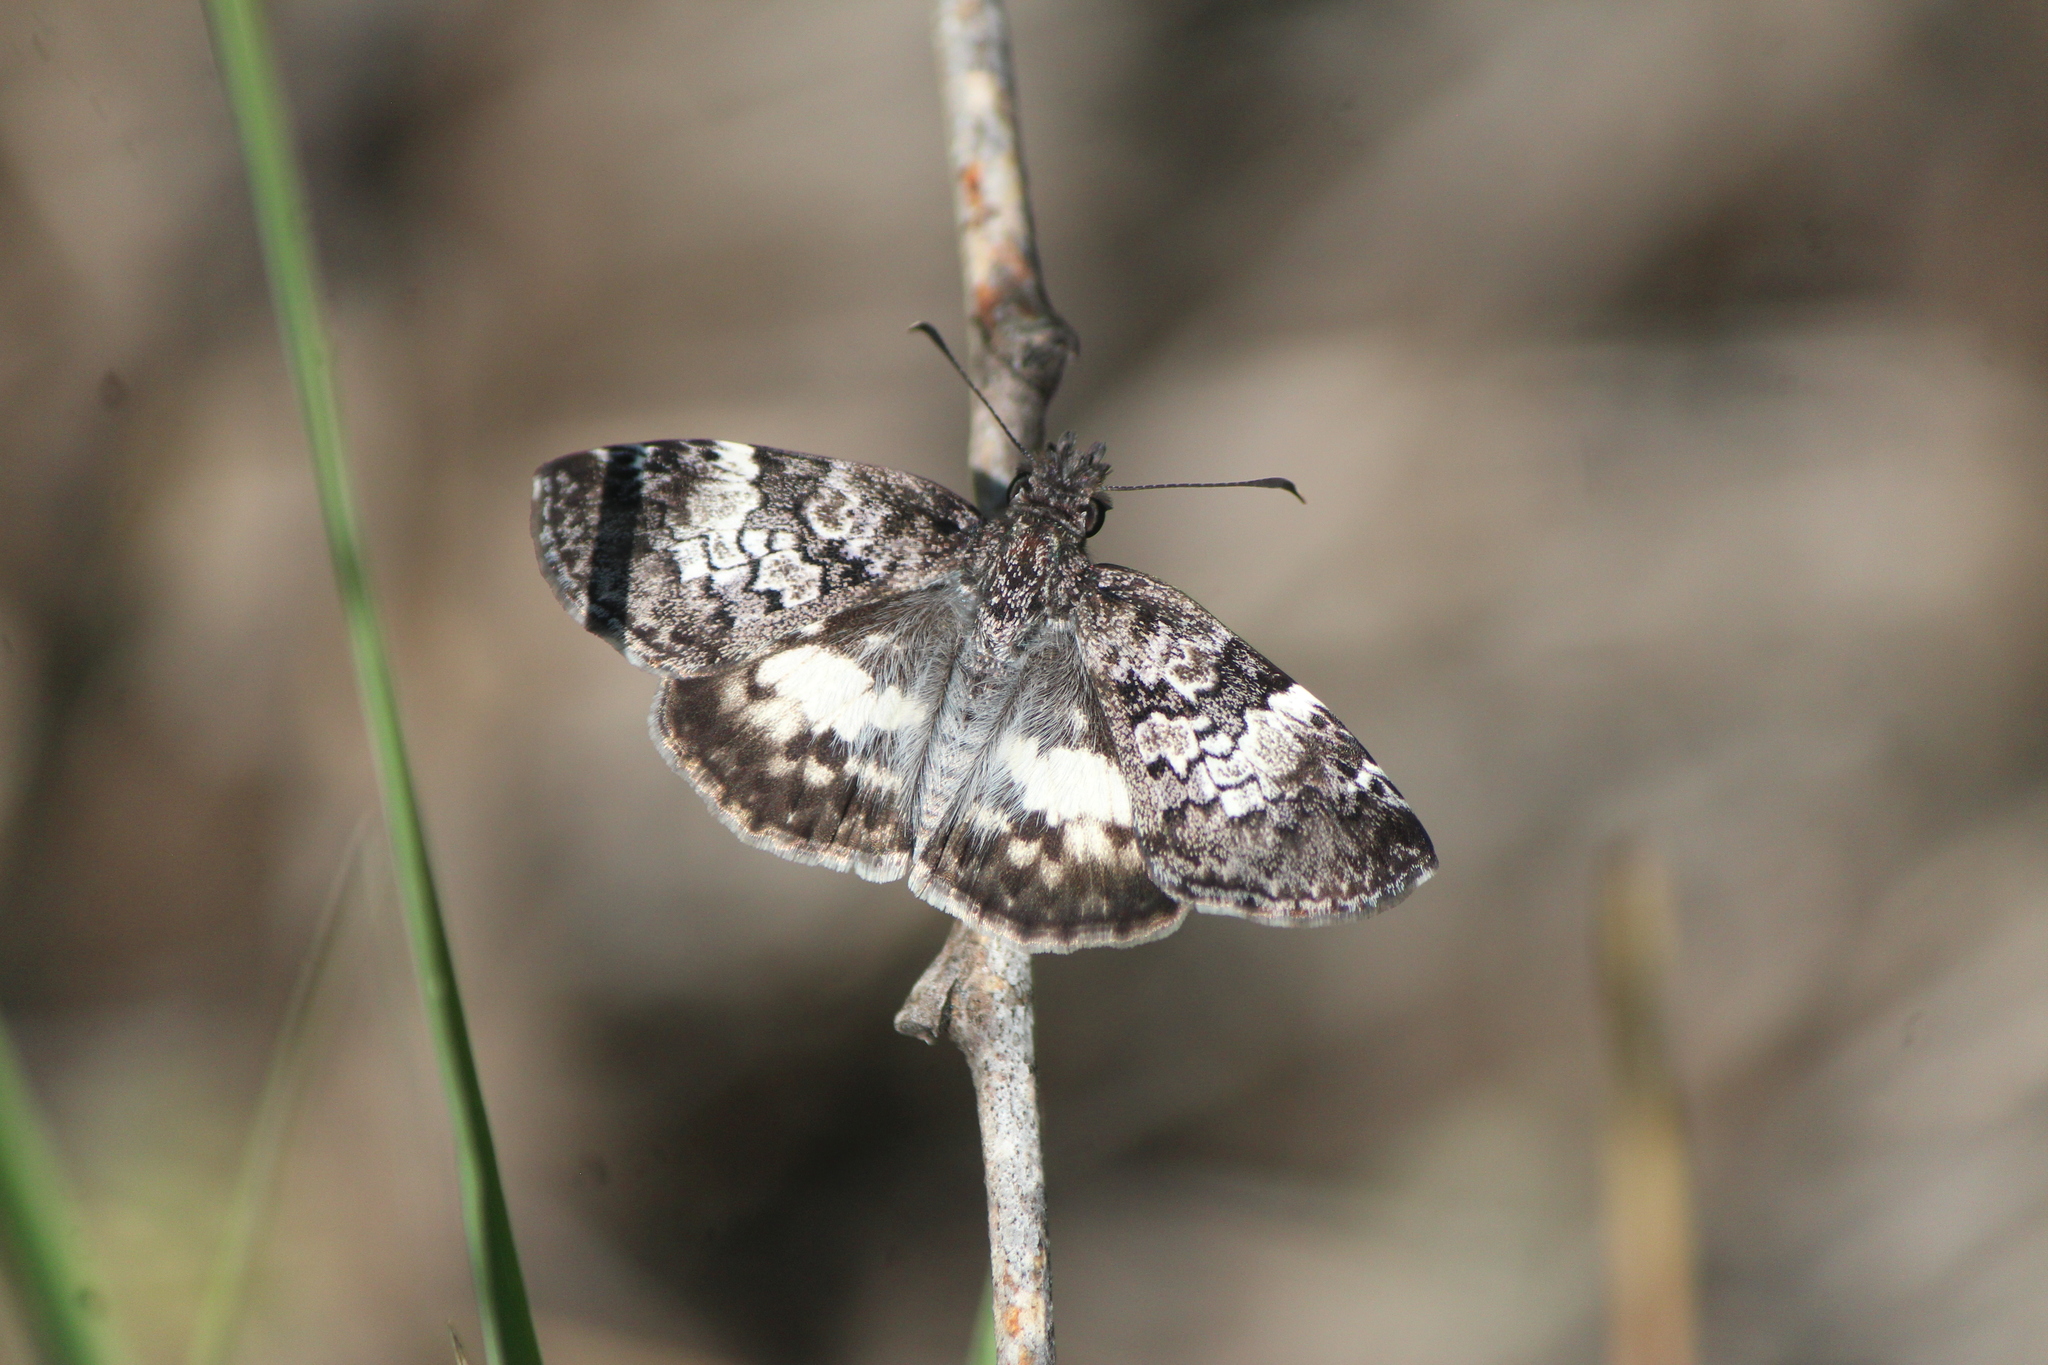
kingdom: Animalia
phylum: Arthropoda
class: Insecta
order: Lepidoptera
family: Hesperiidae
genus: Chiothion
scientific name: Chiothion georgina
